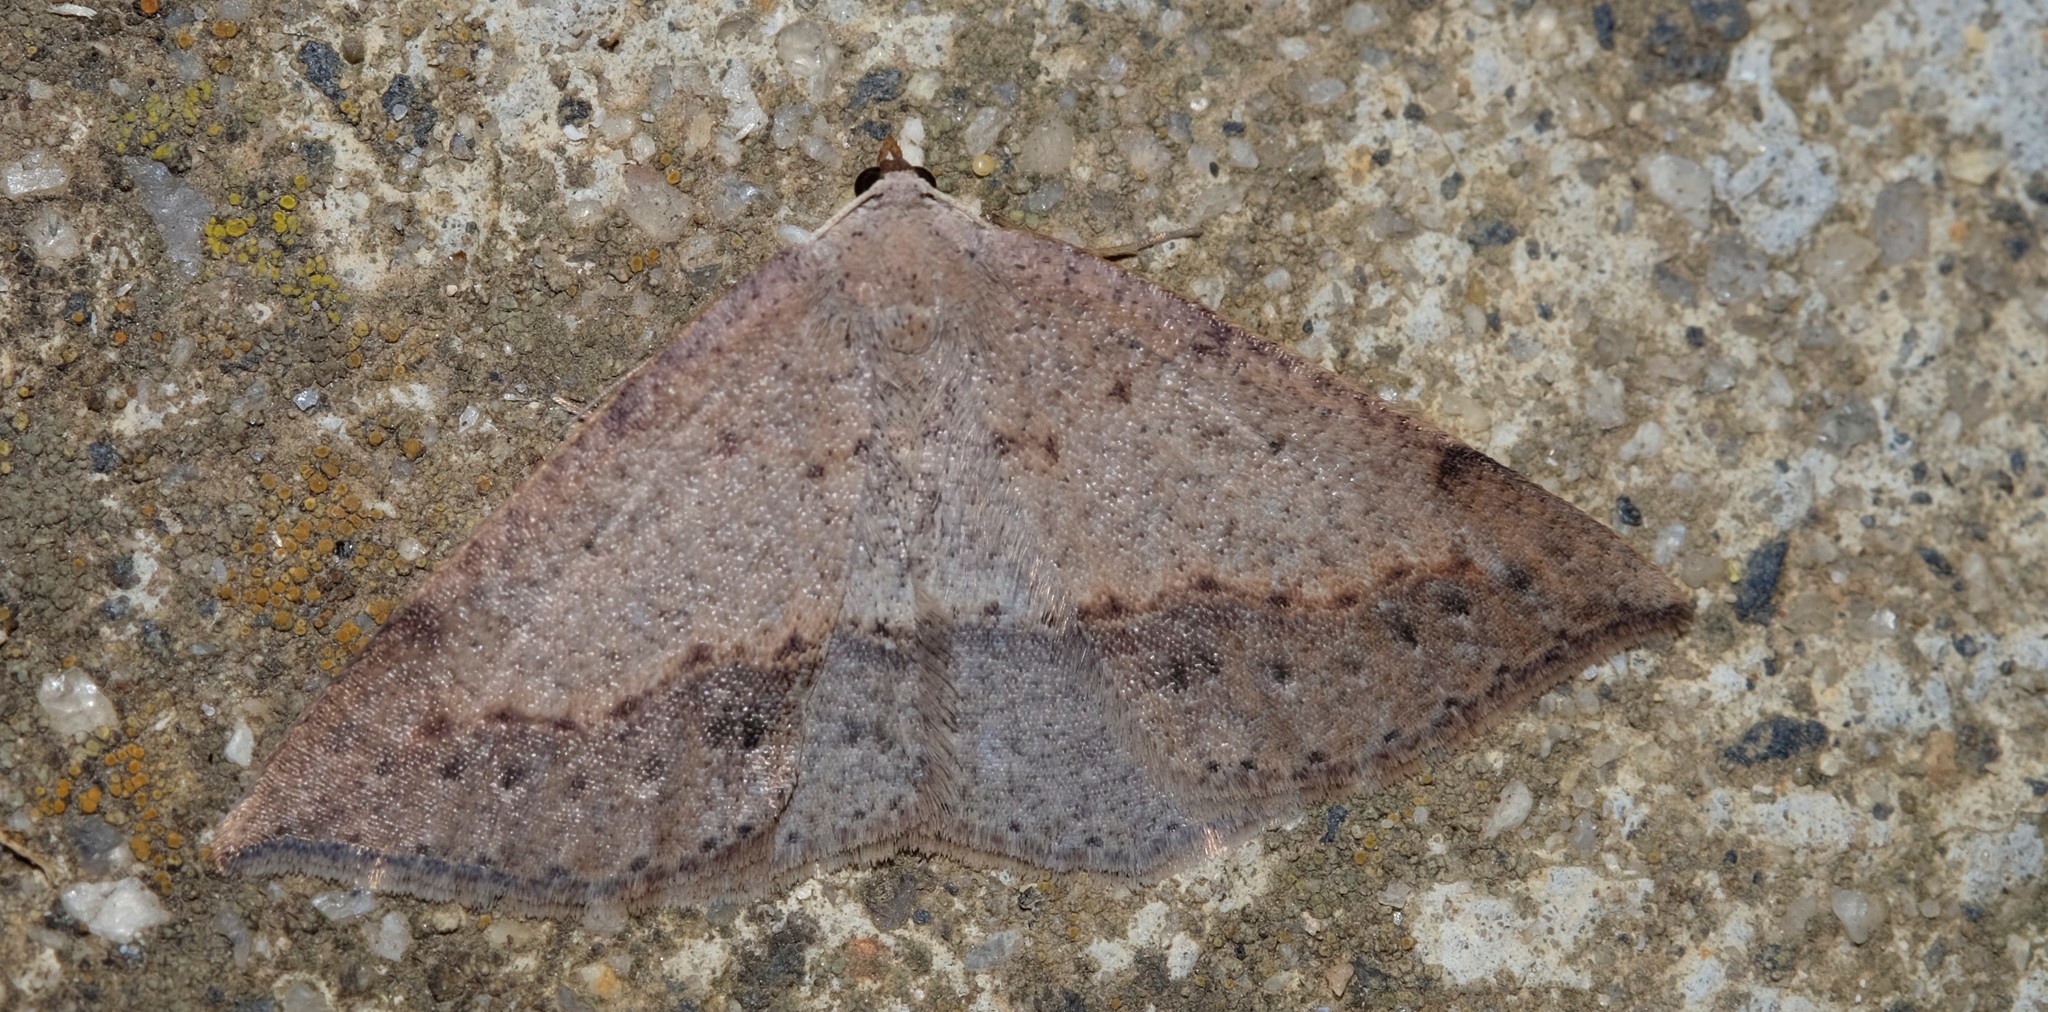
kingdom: Animalia
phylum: Arthropoda
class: Insecta
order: Lepidoptera
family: Geometridae
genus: Taxeotis
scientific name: Taxeotis perlinearia
